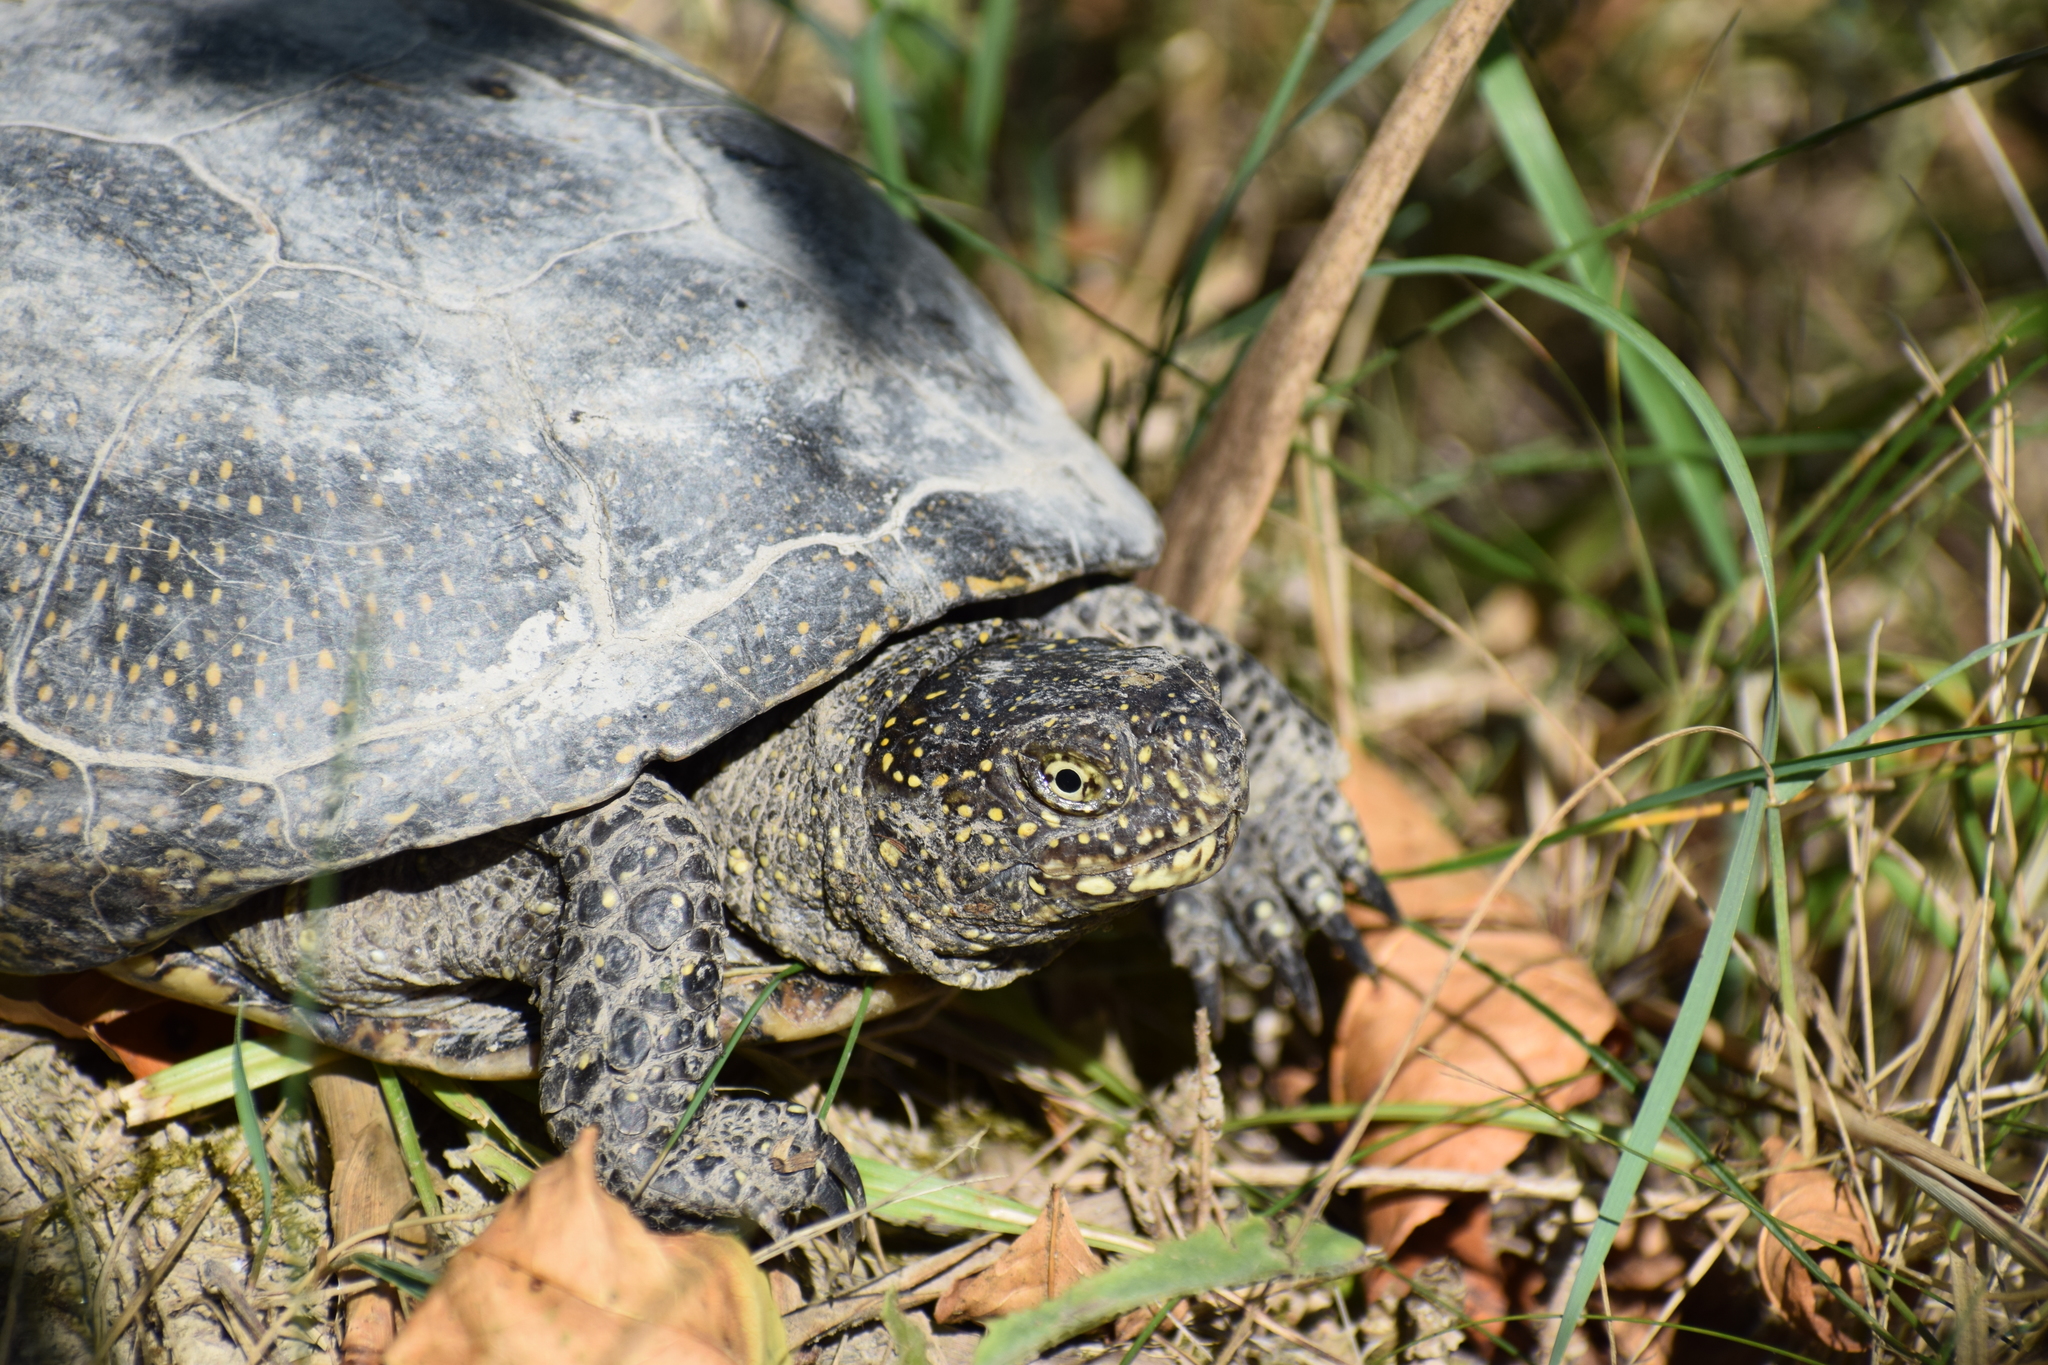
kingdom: Animalia
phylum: Chordata
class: Testudines
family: Emydidae
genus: Emys
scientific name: Emys orbicularis
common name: European pond turtle
